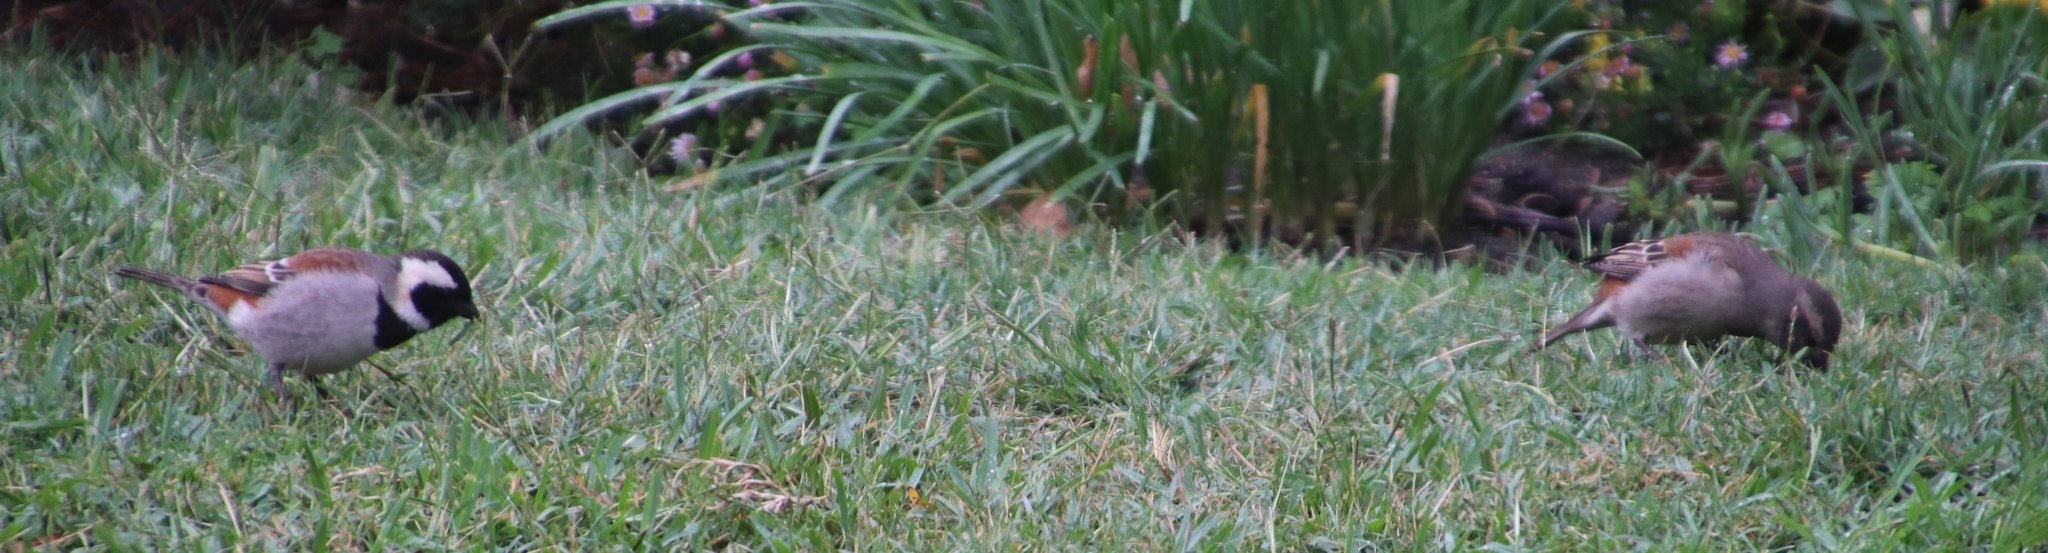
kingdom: Animalia
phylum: Chordata
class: Aves
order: Passeriformes
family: Passeridae
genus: Passer
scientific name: Passer melanurus
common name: Cape sparrow
